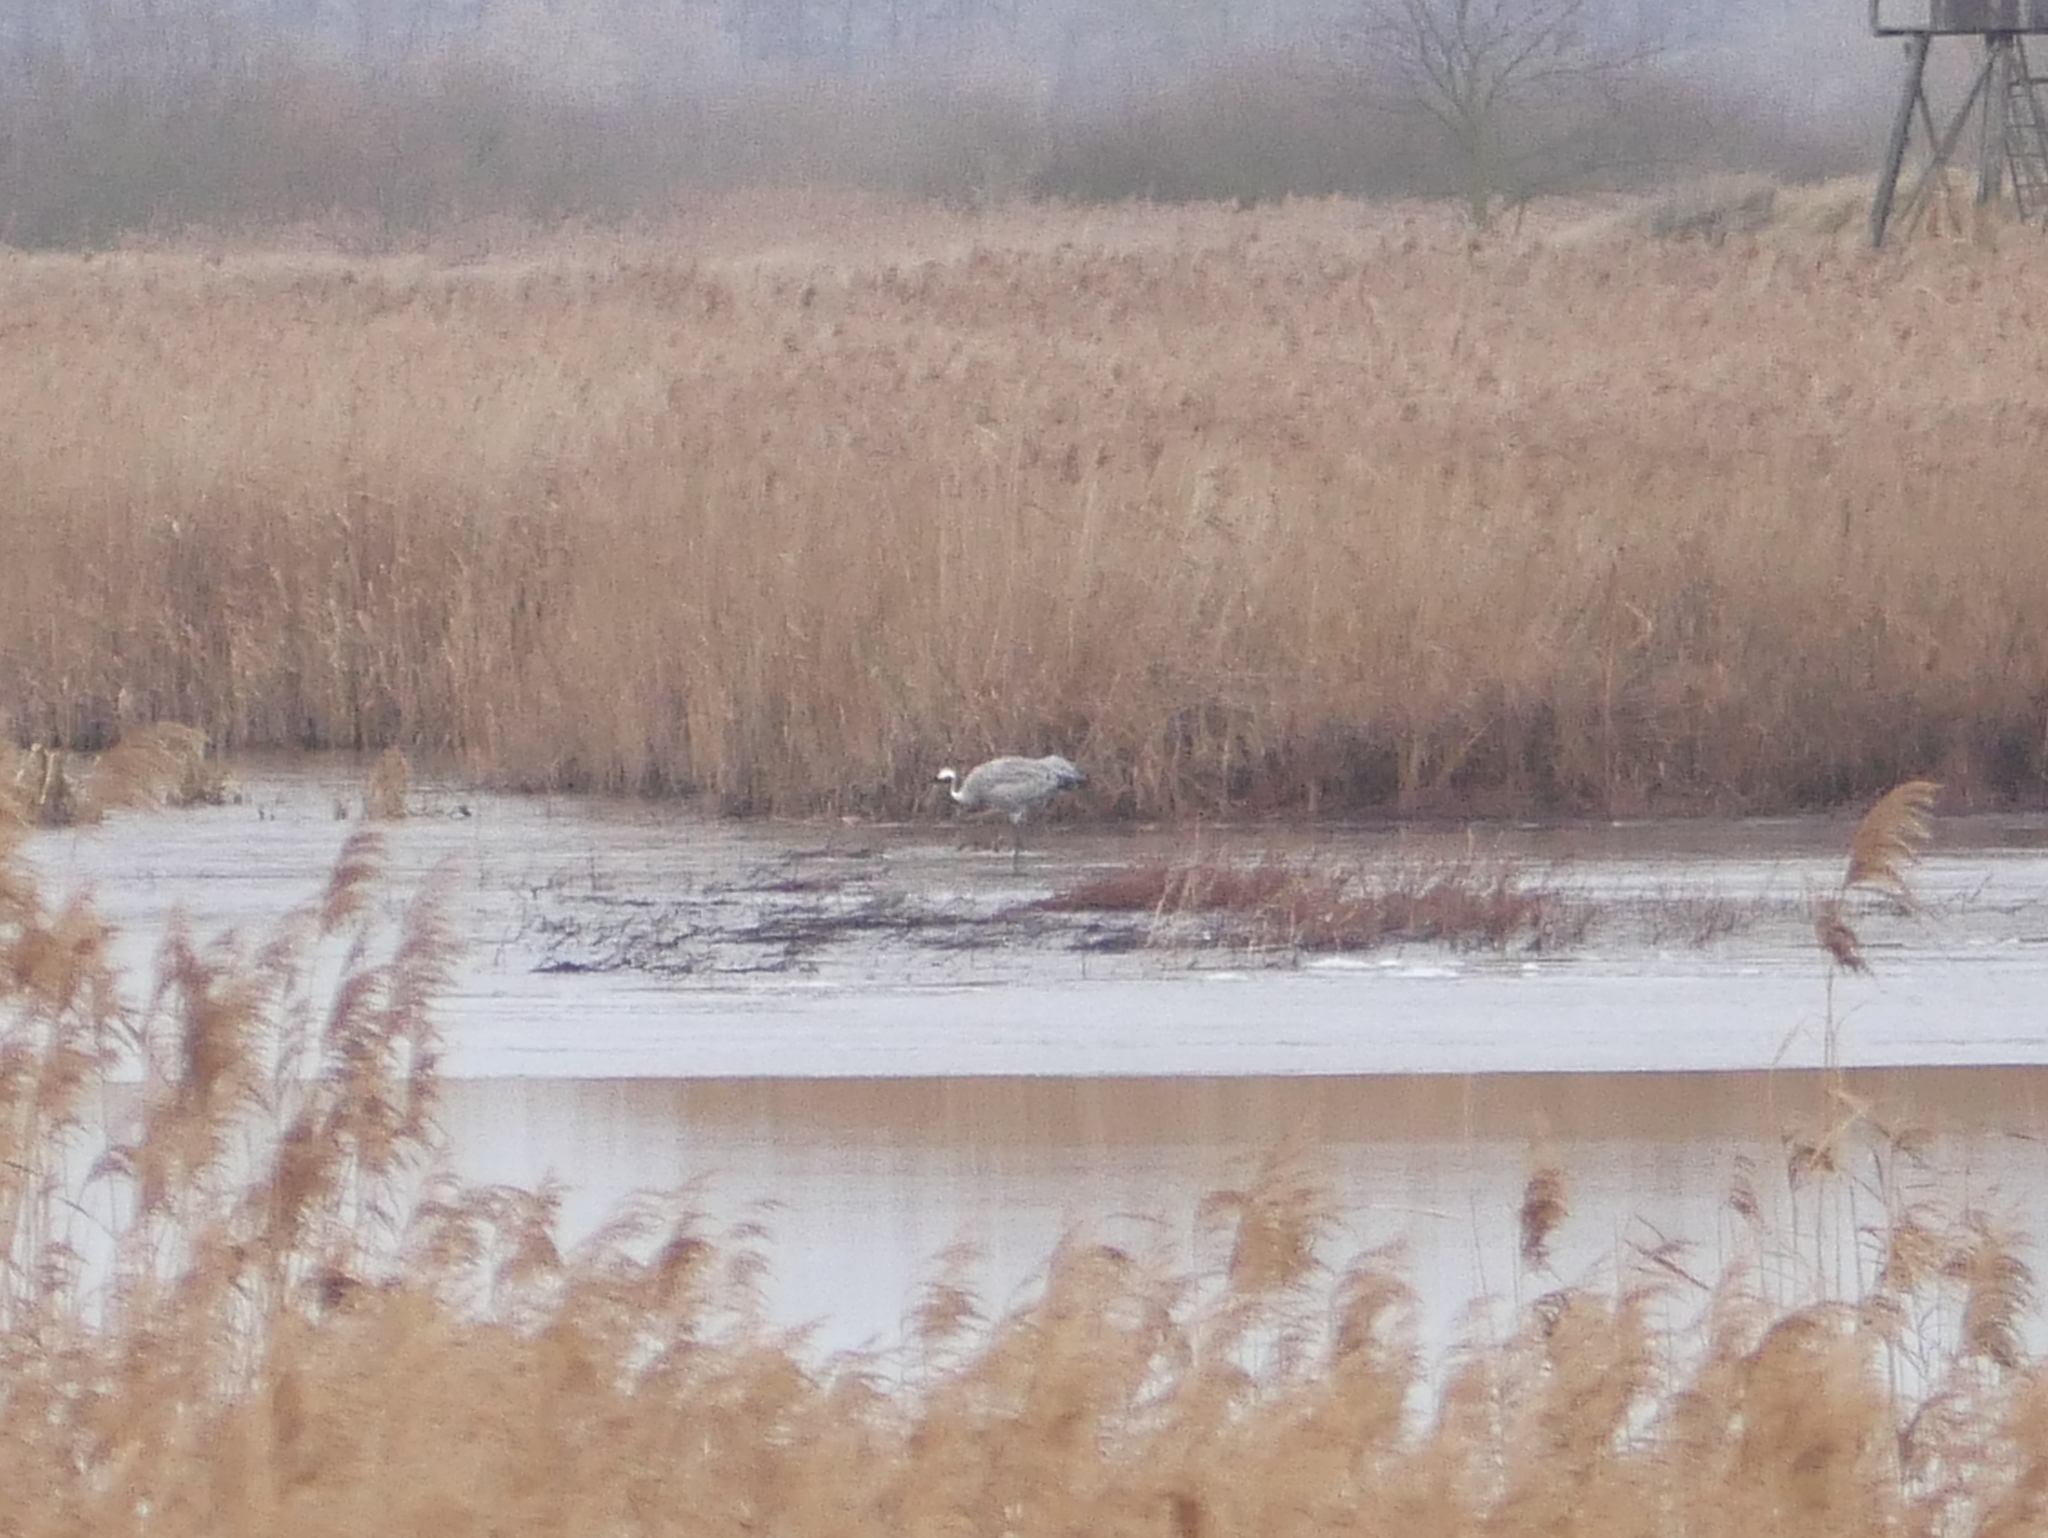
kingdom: Animalia
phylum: Chordata
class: Aves
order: Gruiformes
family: Gruidae
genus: Grus
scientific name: Grus grus
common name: Common crane
